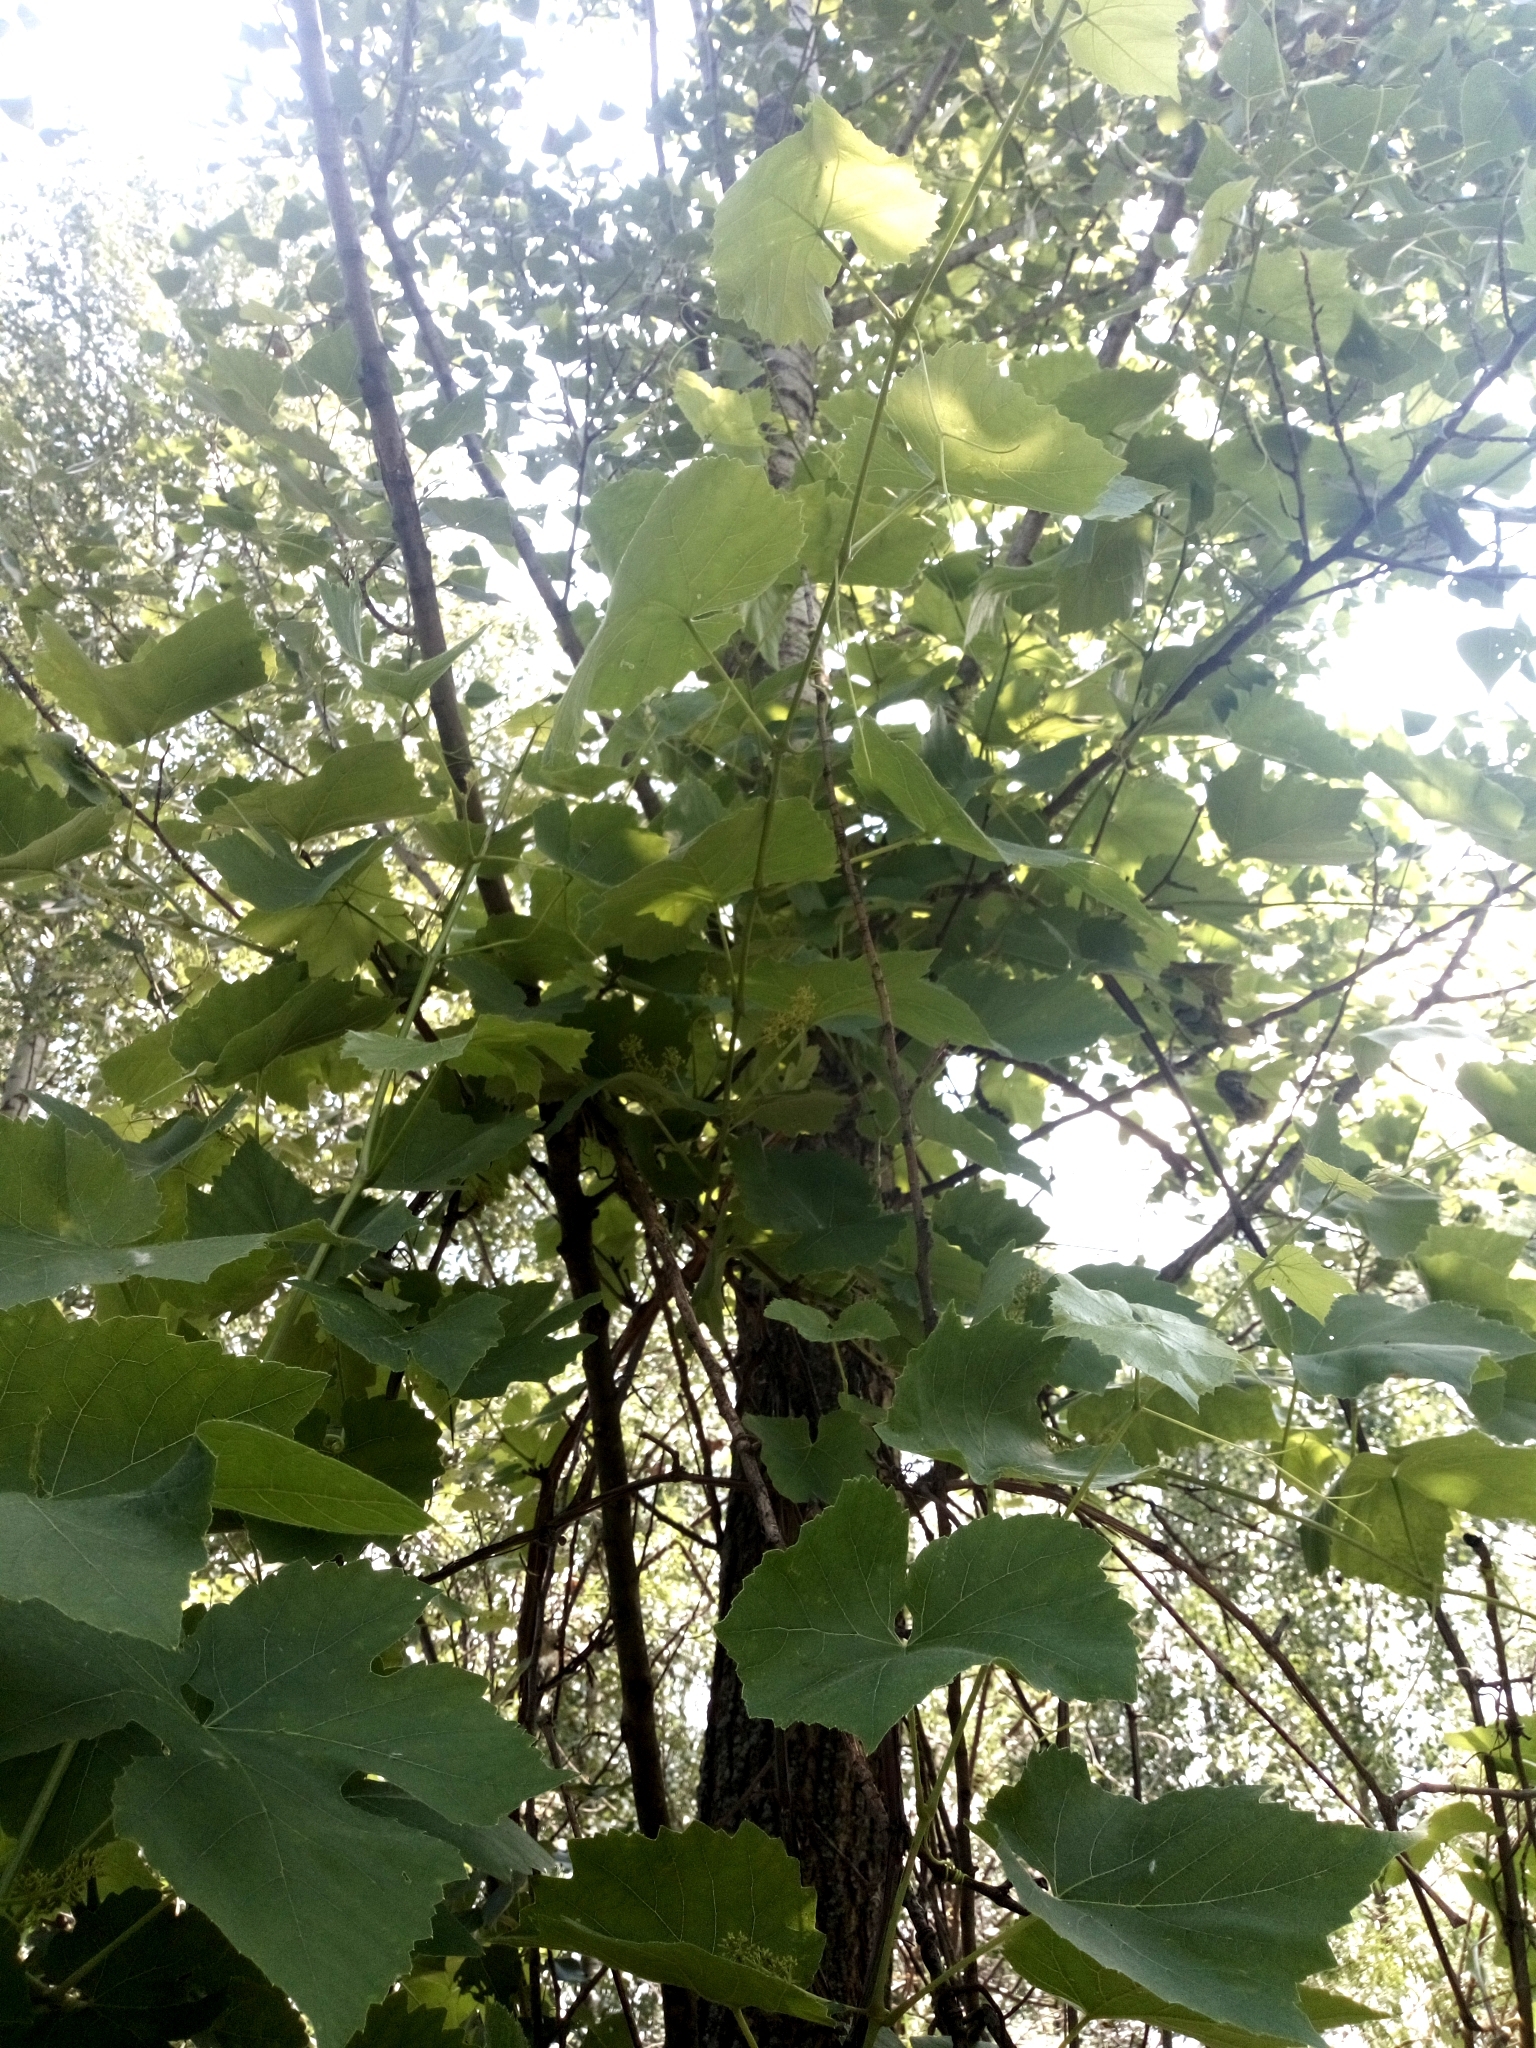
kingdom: Plantae
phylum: Tracheophyta
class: Magnoliopsida
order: Vitales
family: Vitaceae
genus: Vitis
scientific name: Vitis vinifera
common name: Grape-vine
